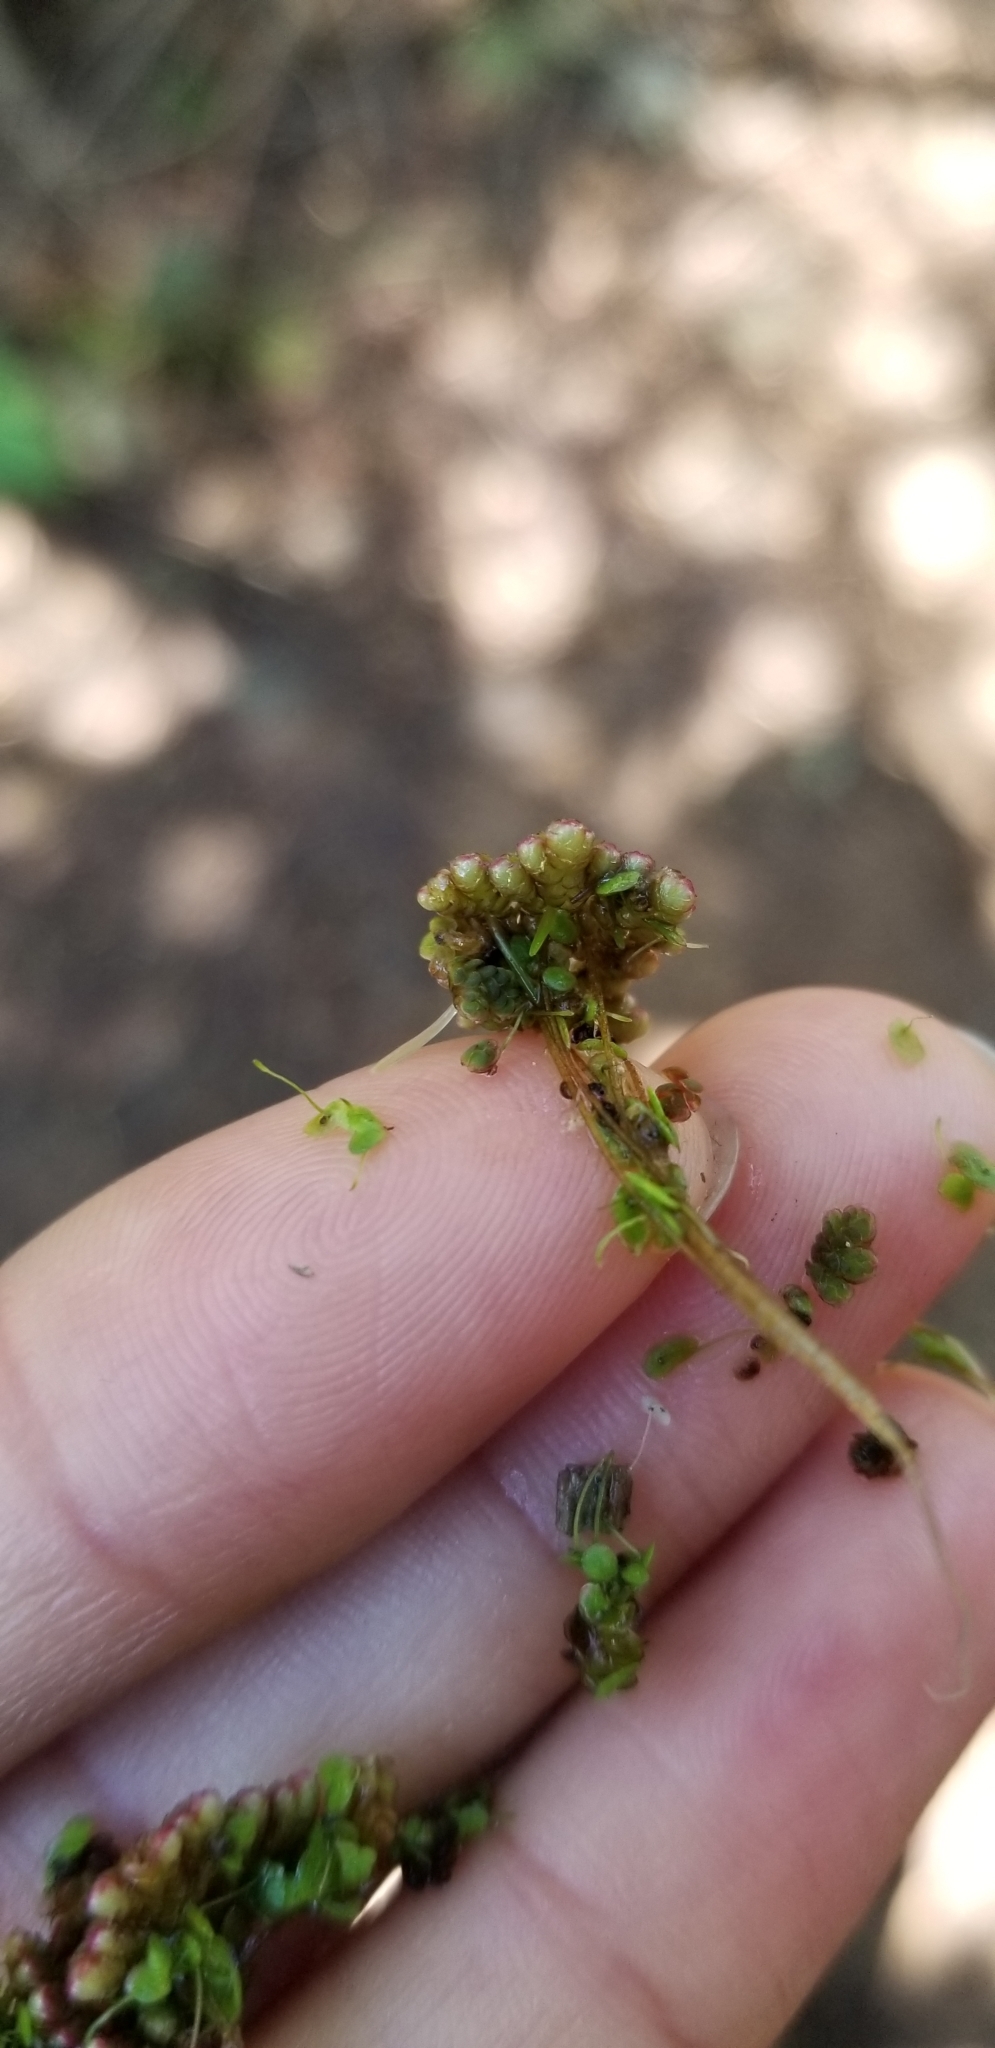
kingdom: Plantae
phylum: Tracheophyta
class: Polypodiopsida
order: Salviniales
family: Salviniaceae
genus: Azolla
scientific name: Azolla filiculoides
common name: Water fern
